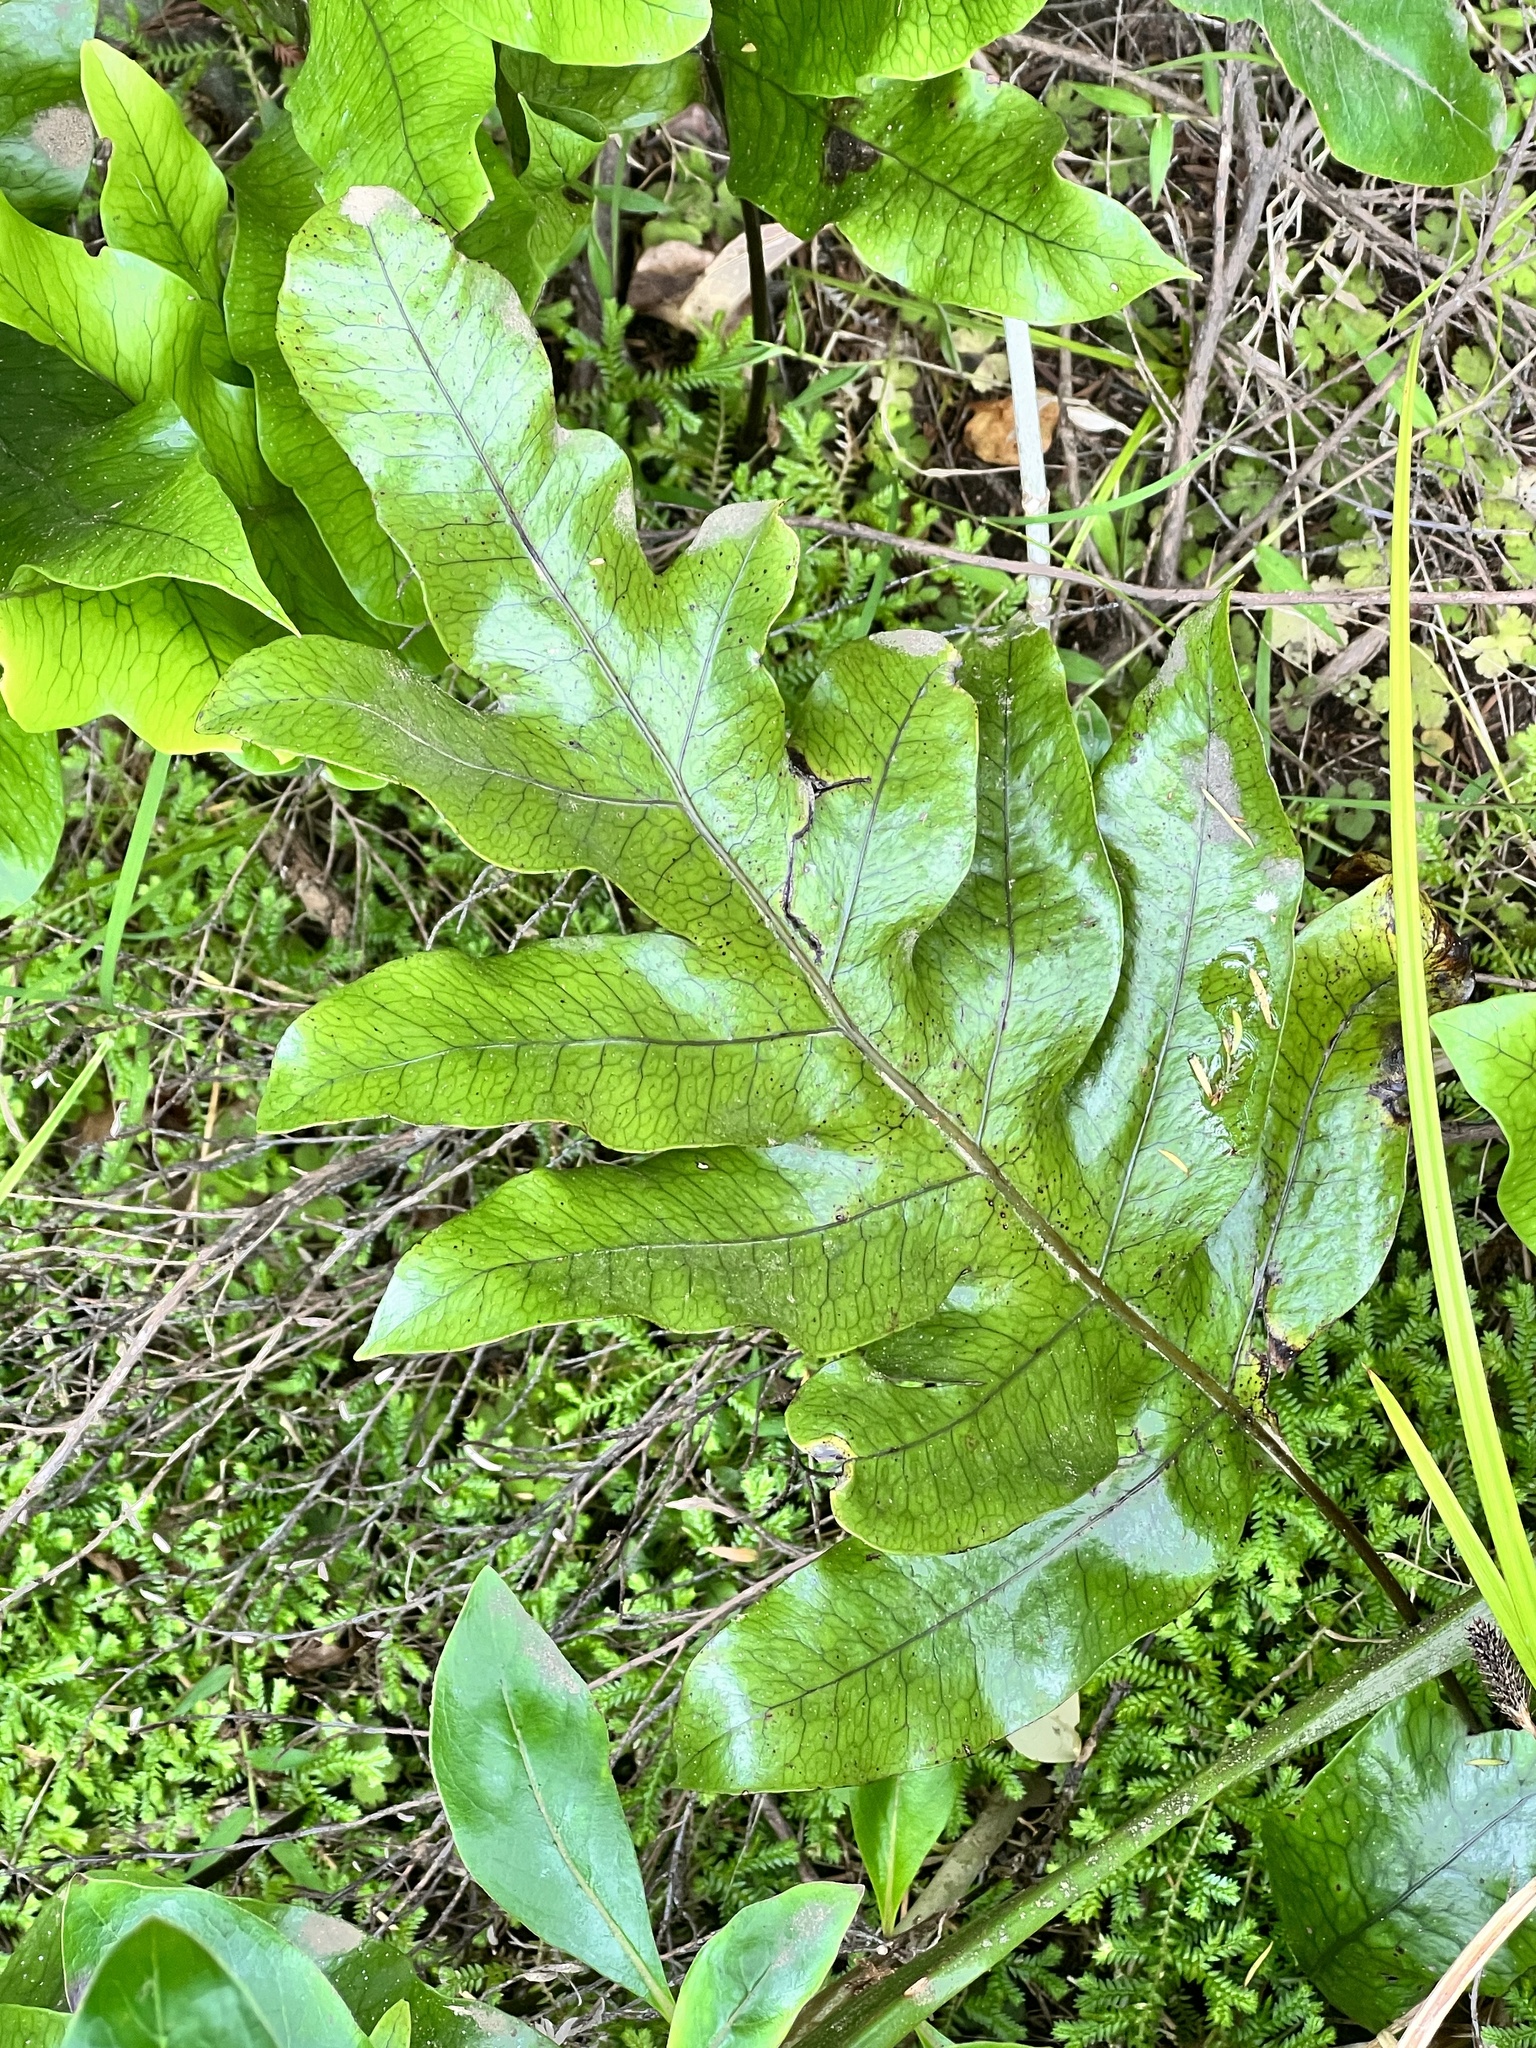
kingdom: Plantae
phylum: Tracheophyta
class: Polypodiopsida
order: Polypodiales
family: Polypodiaceae
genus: Lecanopteris
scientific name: Lecanopteris pustulata
